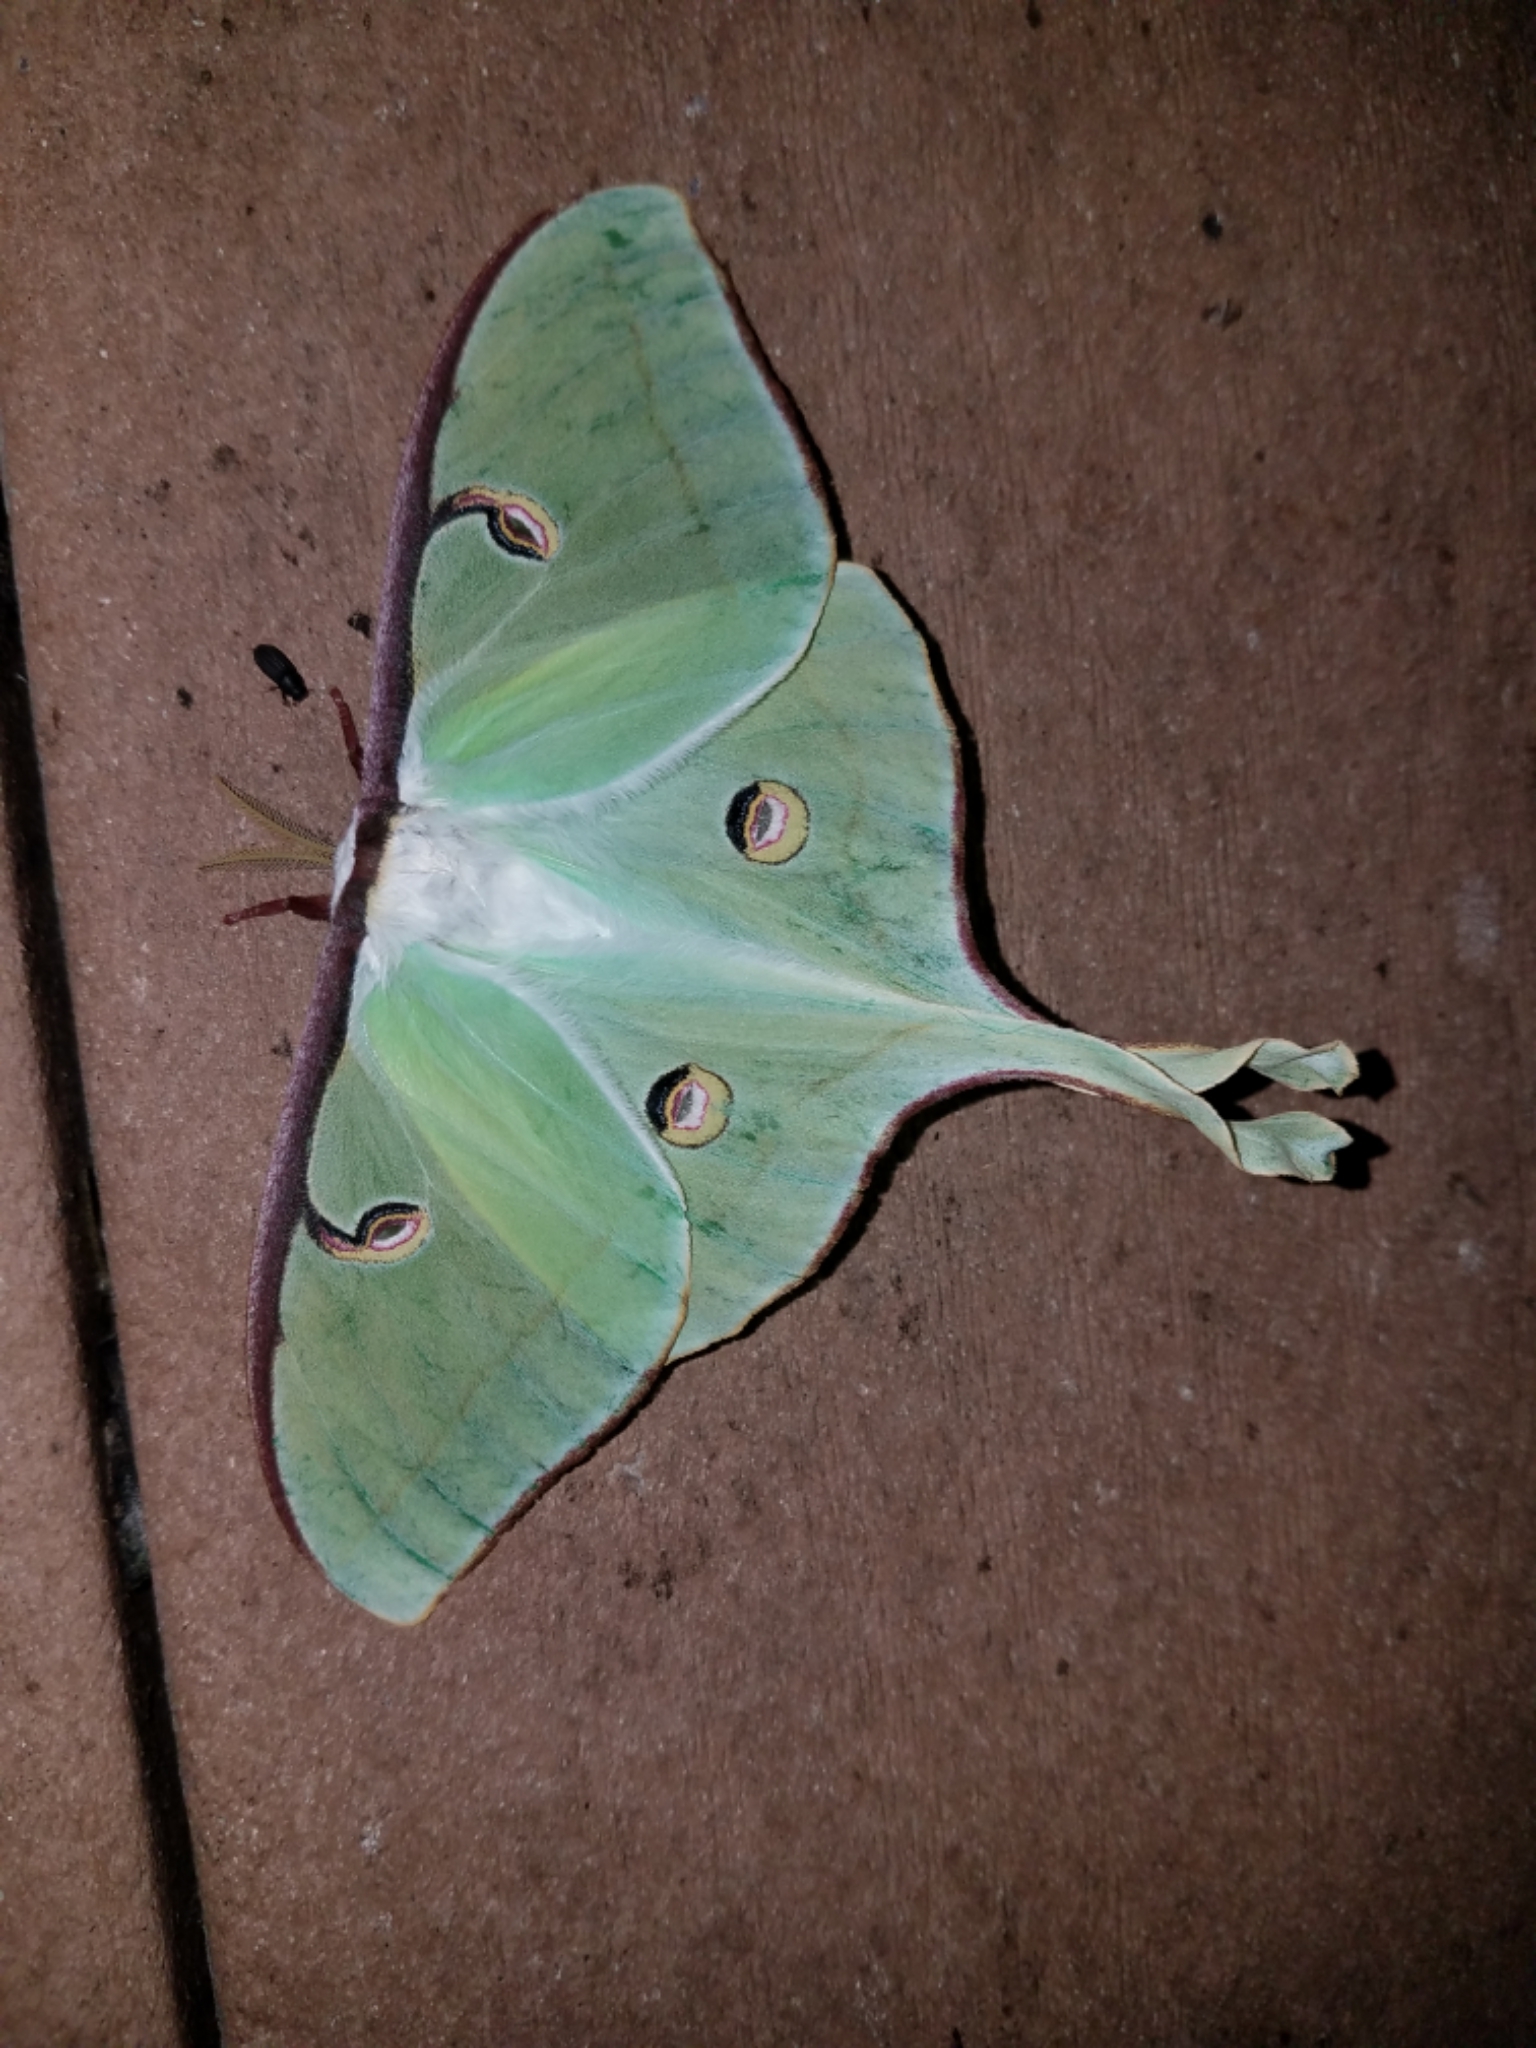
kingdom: Animalia
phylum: Arthropoda
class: Insecta
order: Lepidoptera
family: Saturniidae
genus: Actias
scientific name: Actias luna
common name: Luna moth
